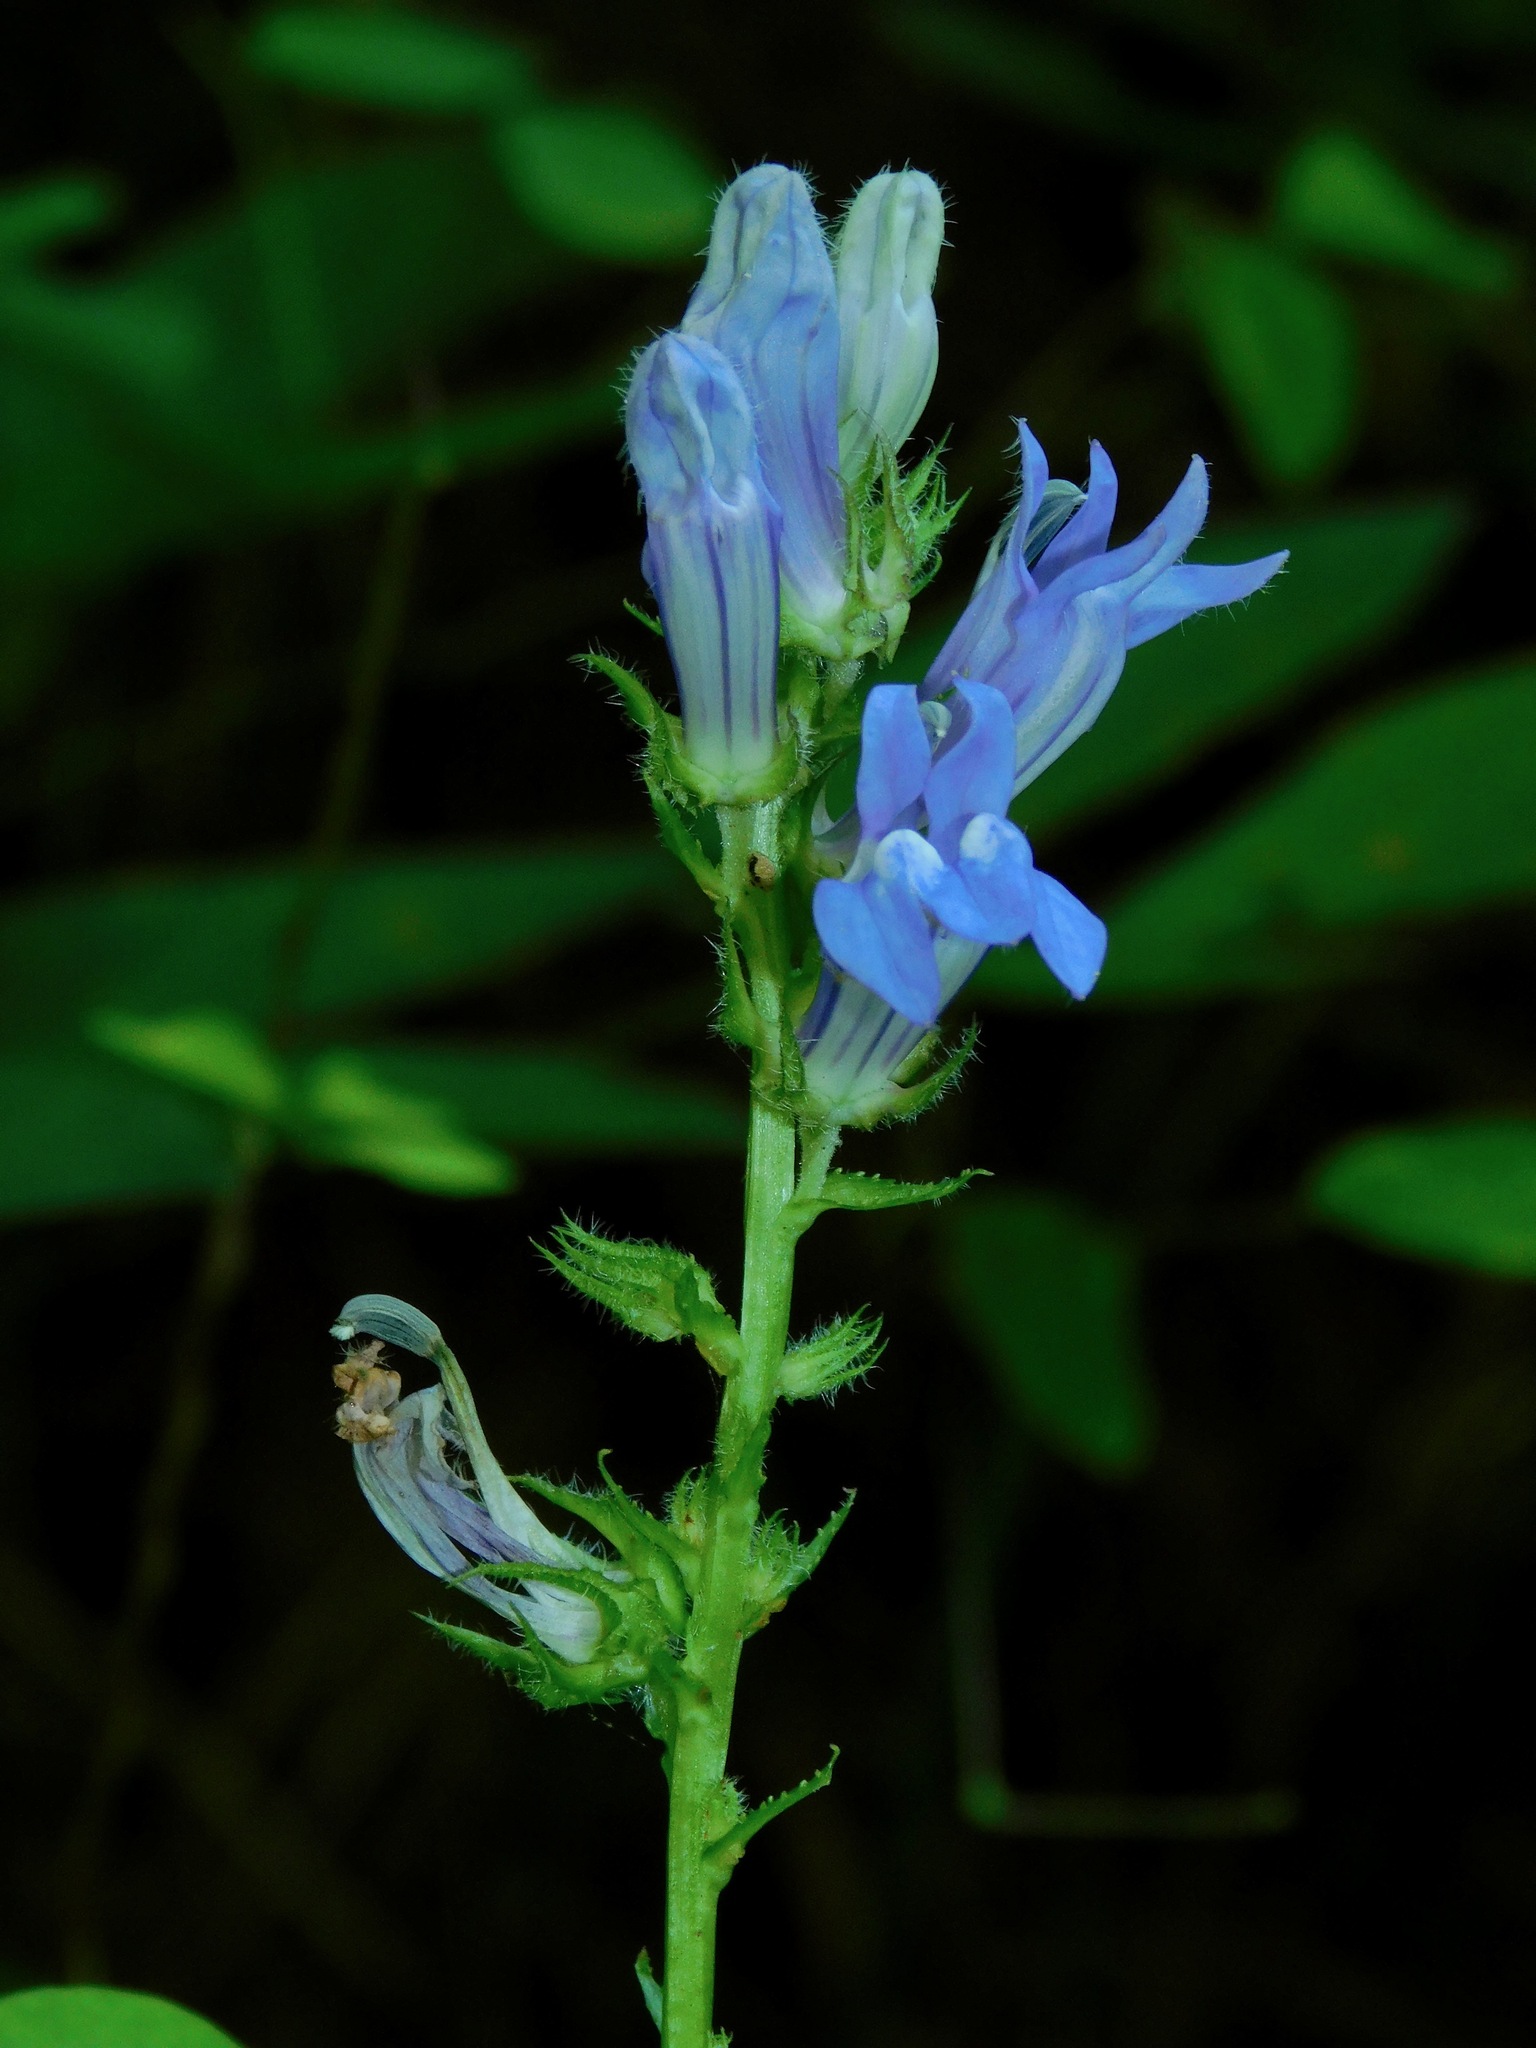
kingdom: Plantae
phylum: Tracheophyta
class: Magnoliopsida
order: Asterales
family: Campanulaceae
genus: Lobelia
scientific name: Lobelia siphilitica
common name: Great lobelia
